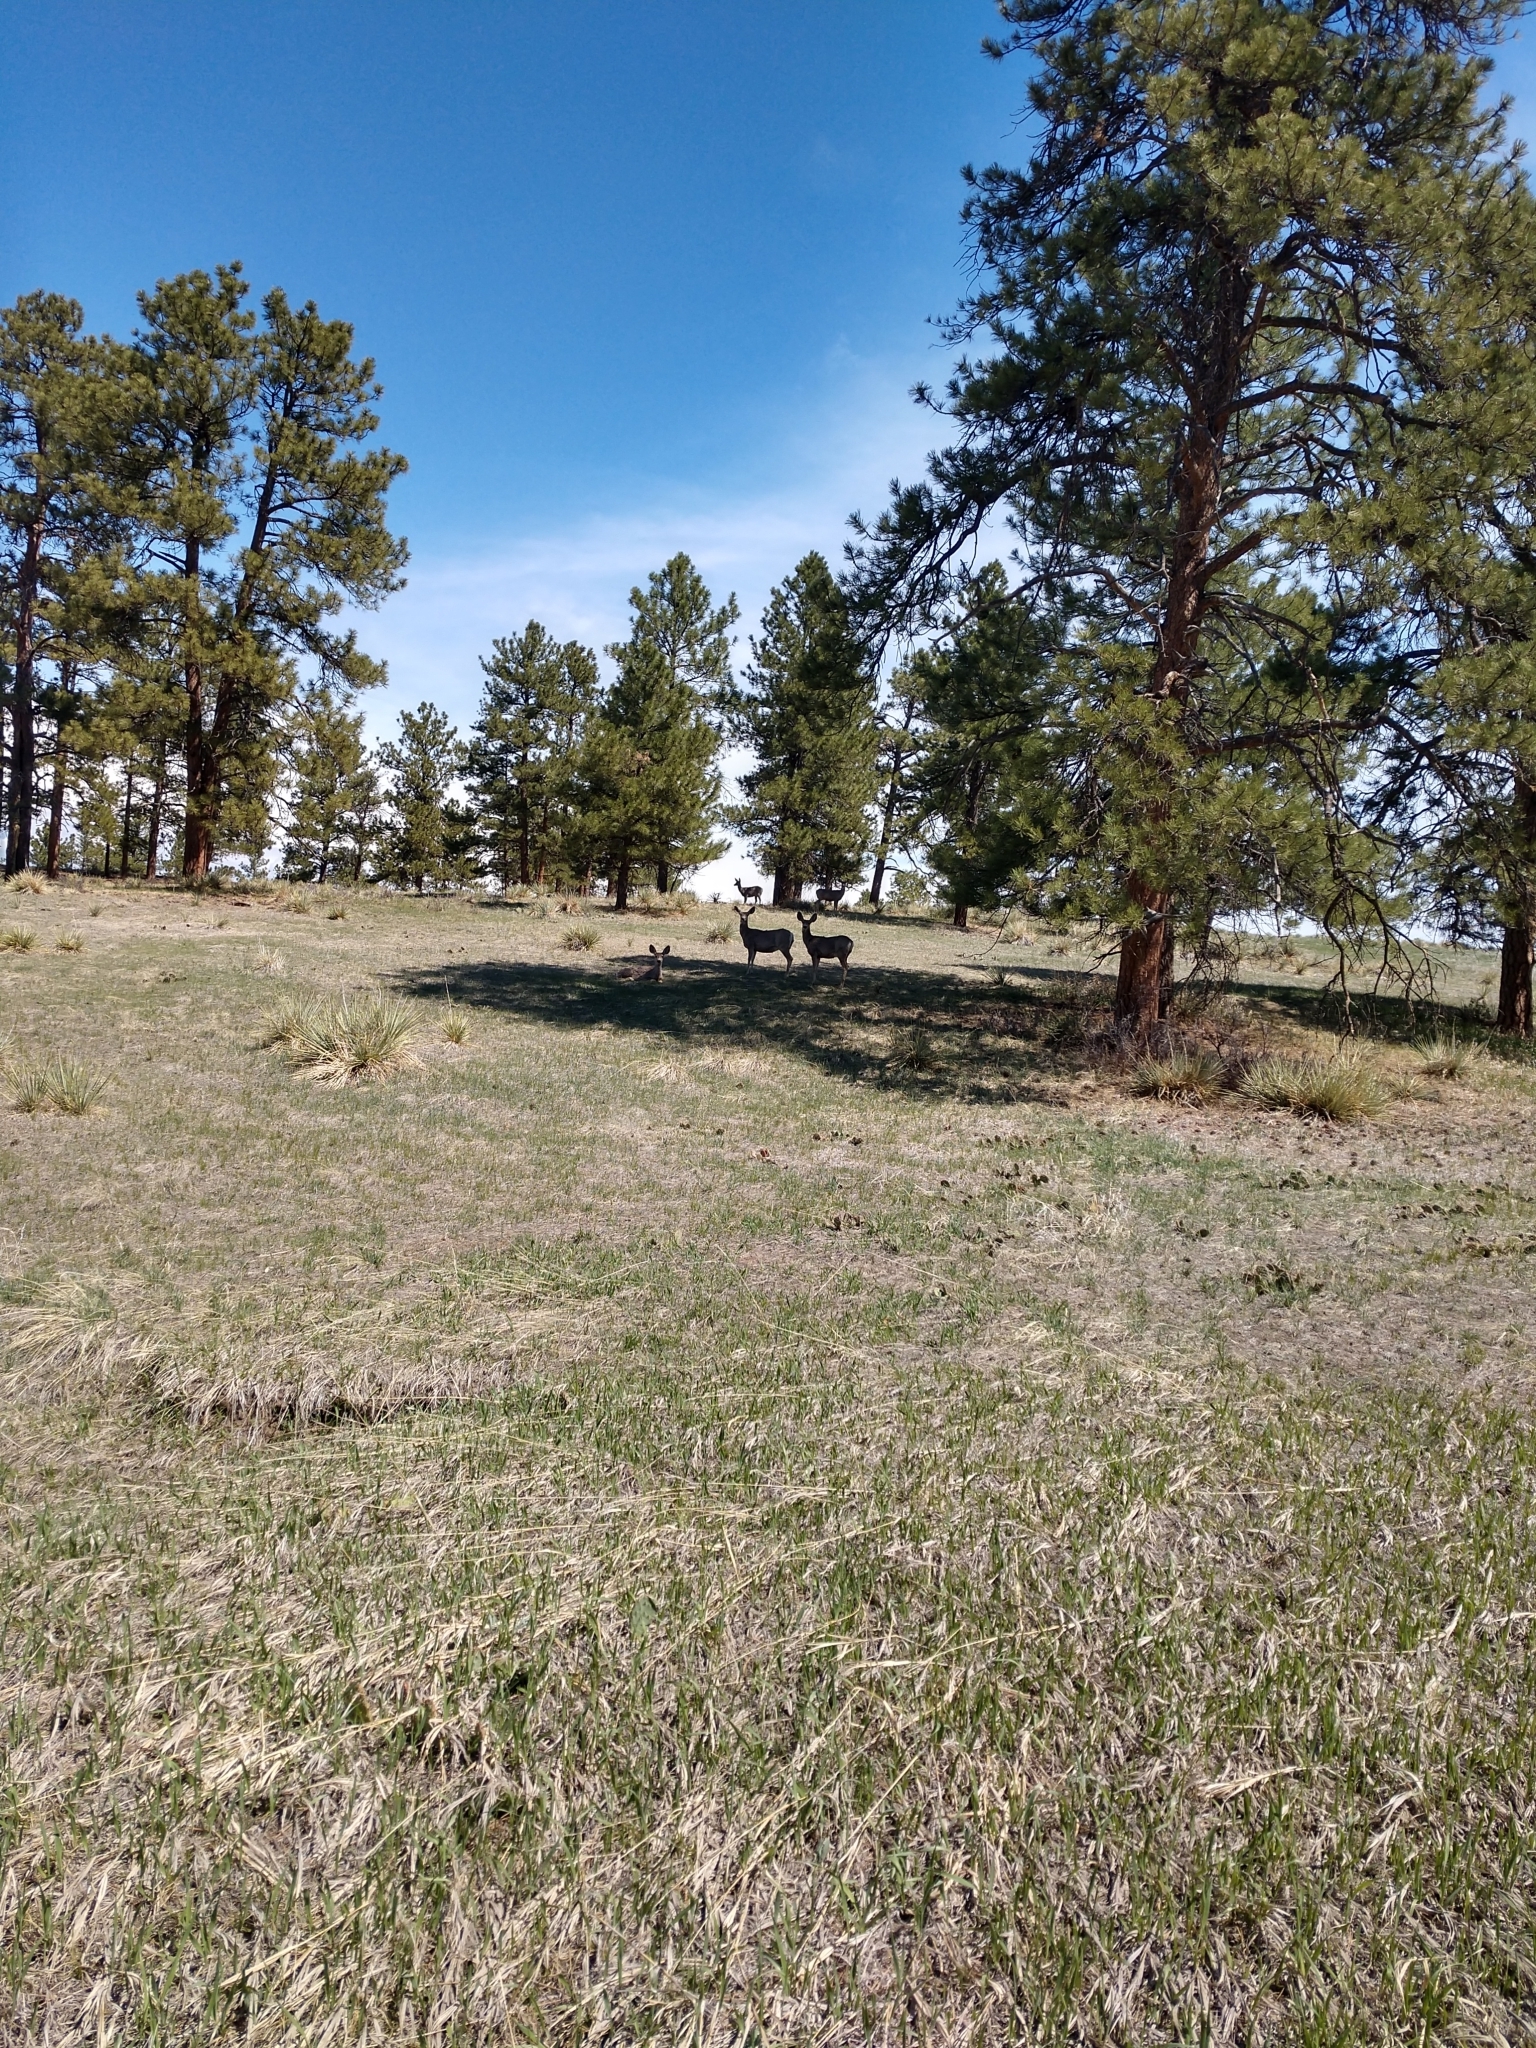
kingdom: Animalia
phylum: Chordata
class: Mammalia
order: Artiodactyla
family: Cervidae
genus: Odocoileus
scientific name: Odocoileus hemionus
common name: Mule deer
